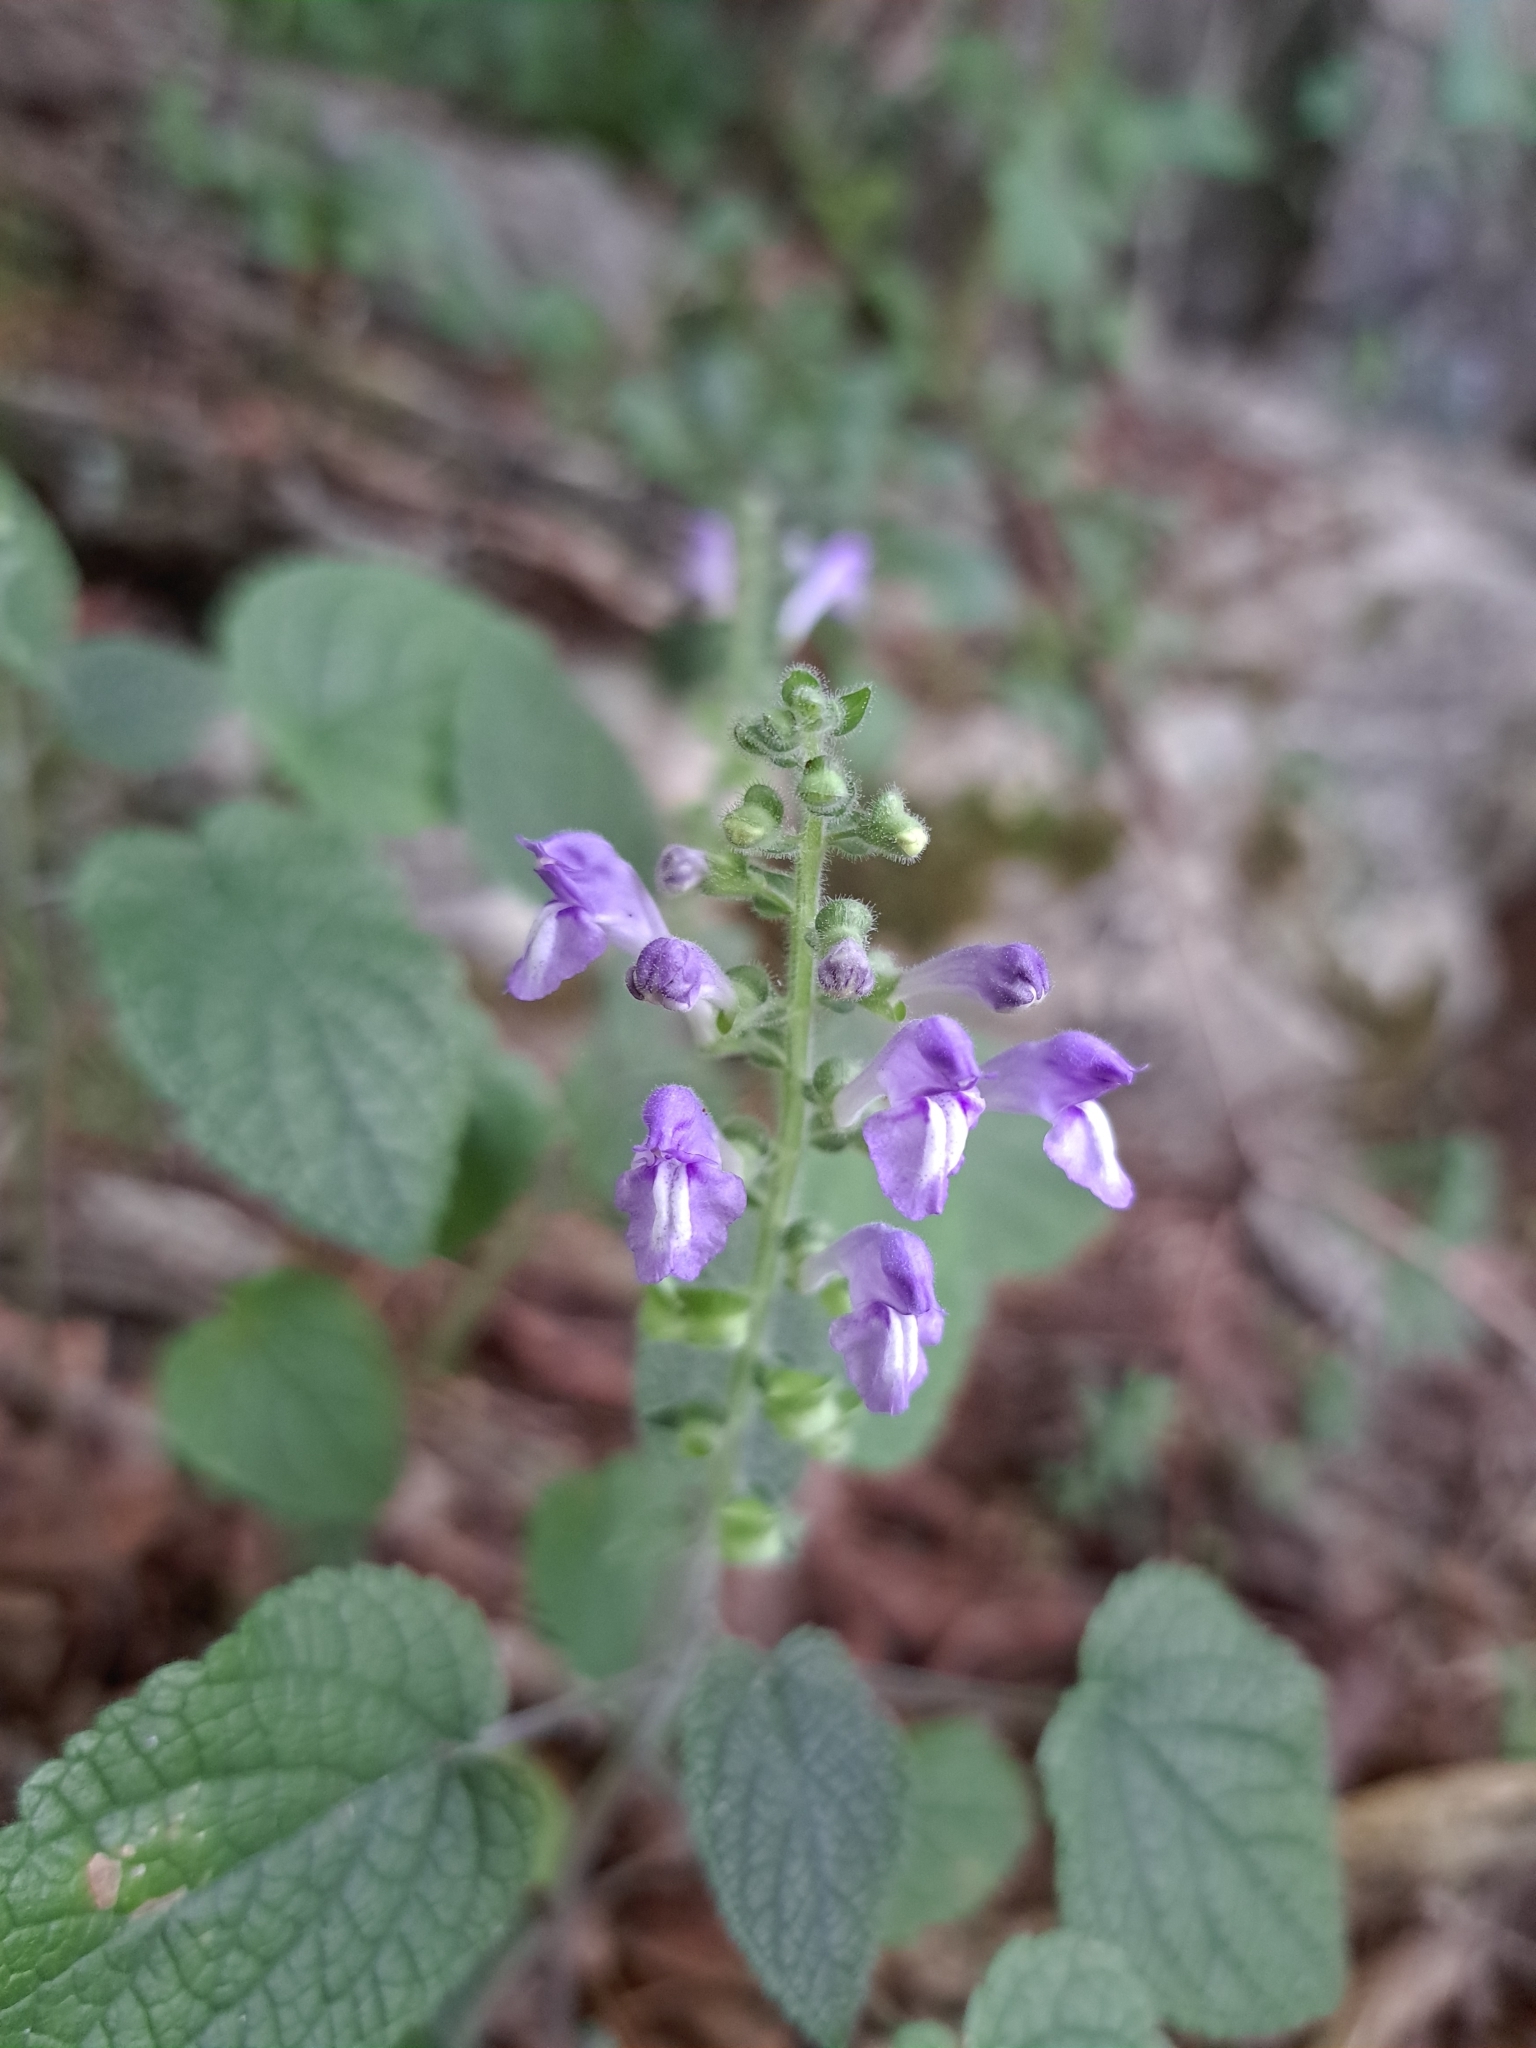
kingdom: Plantae
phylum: Tracheophyta
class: Magnoliopsida
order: Lamiales
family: Lamiaceae
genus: Scutellaria
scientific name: Scutellaria ovata
